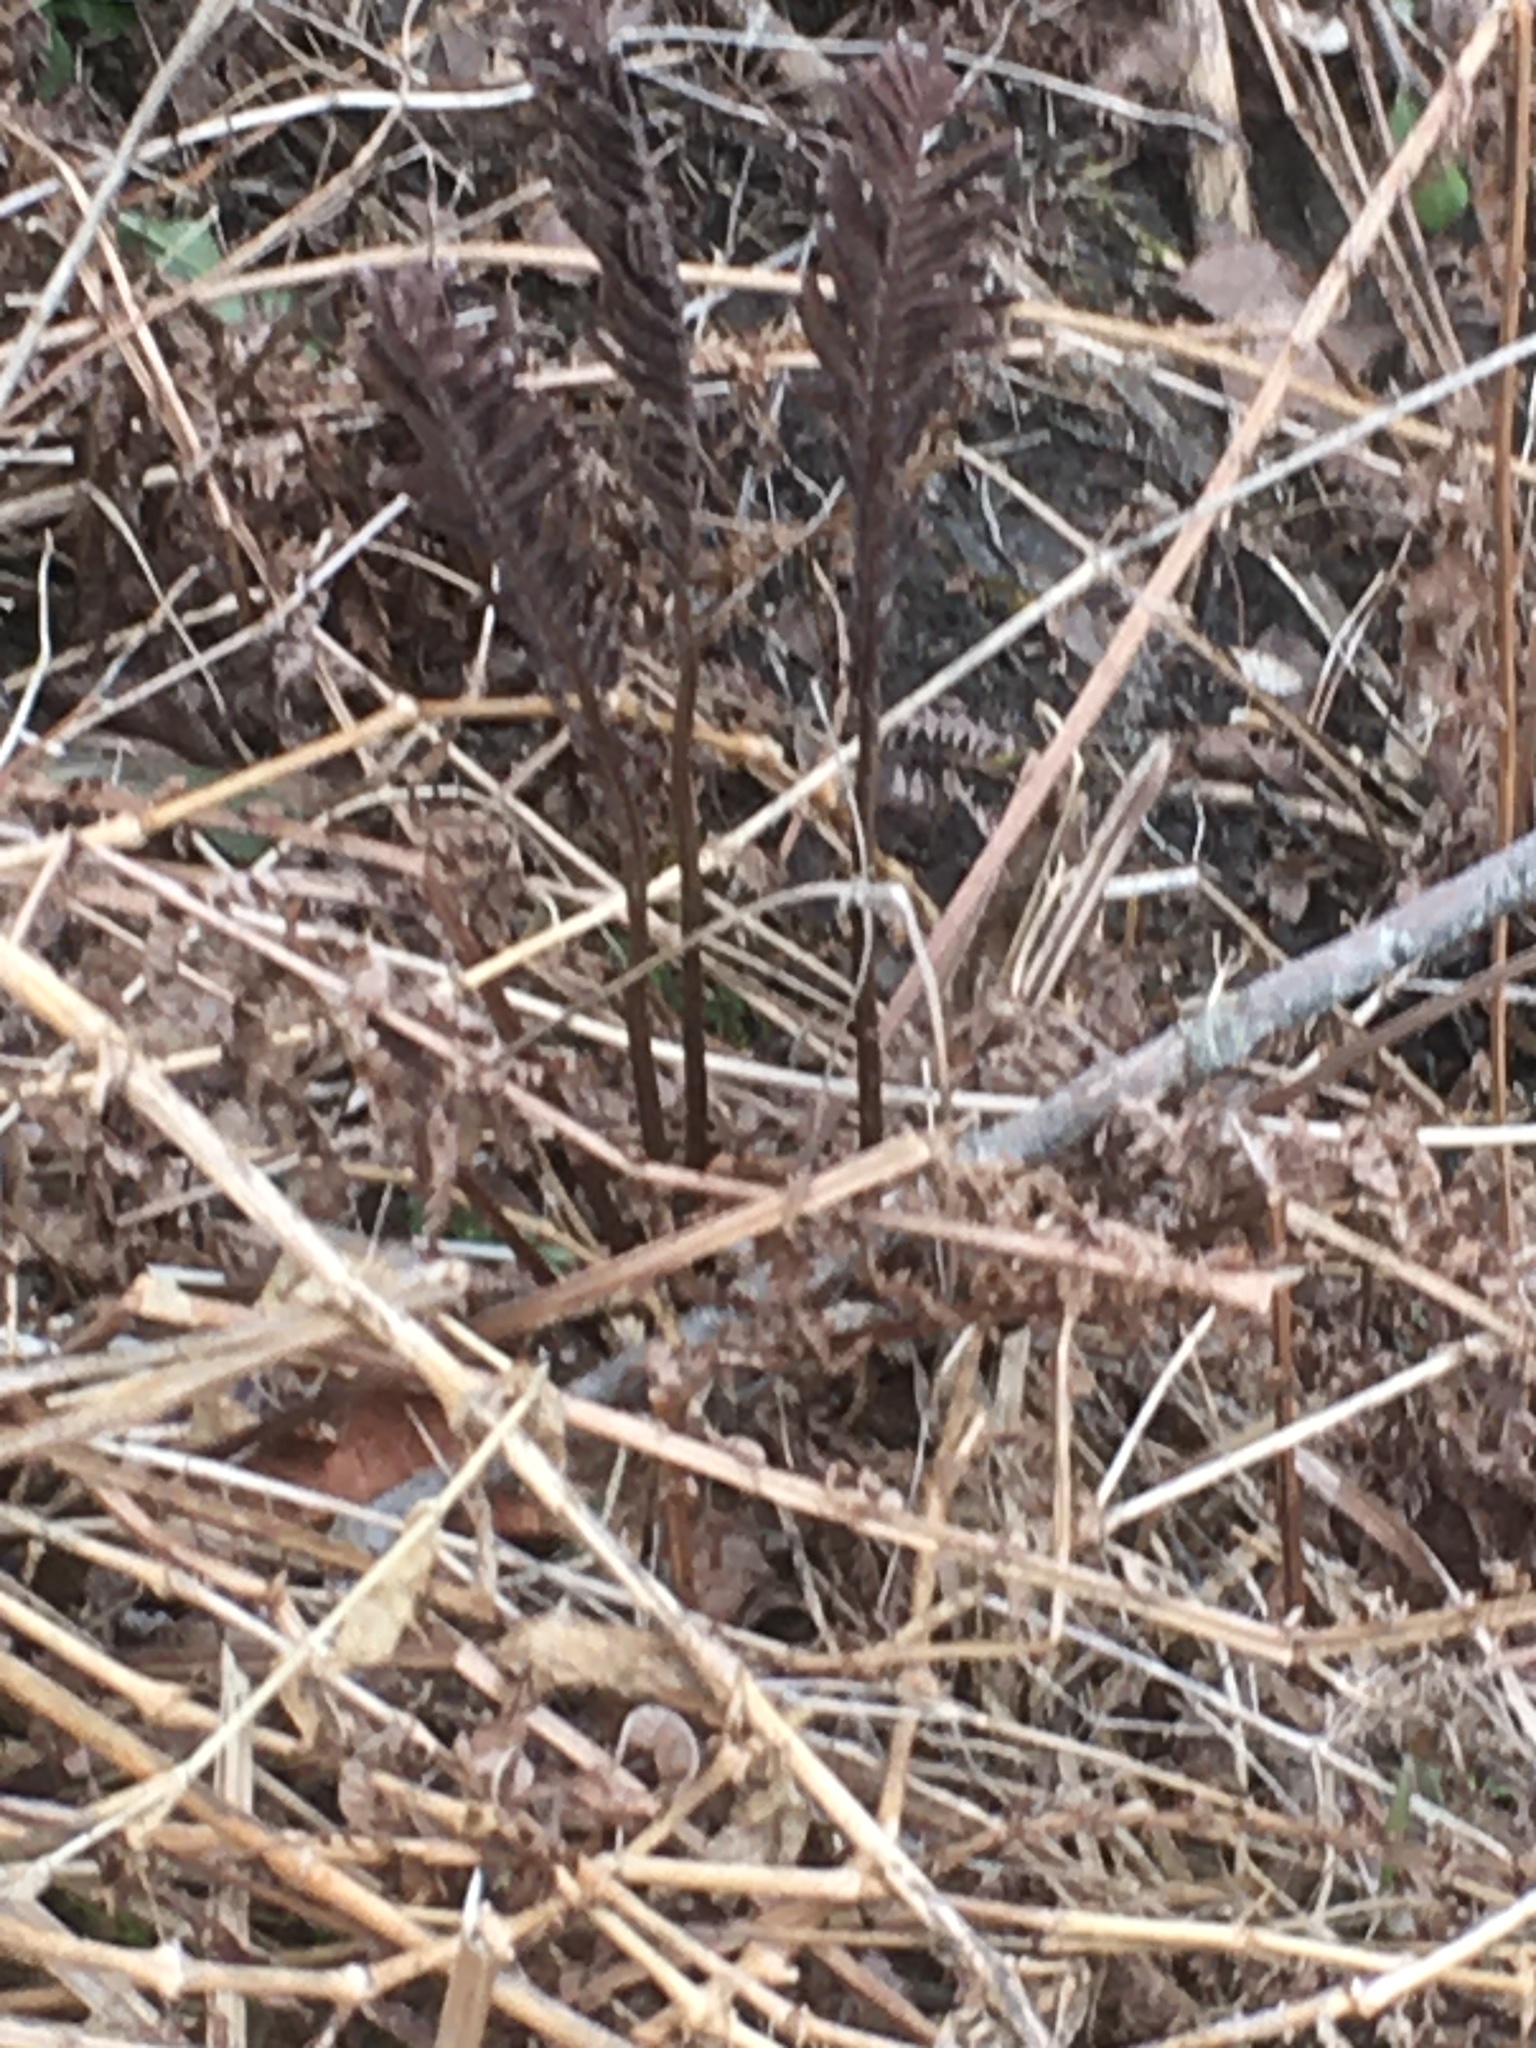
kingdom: Plantae
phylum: Tracheophyta
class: Polypodiopsida
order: Polypodiales
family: Onocleaceae
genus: Matteuccia
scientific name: Matteuccia struthiopteris
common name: Ostrich fern
